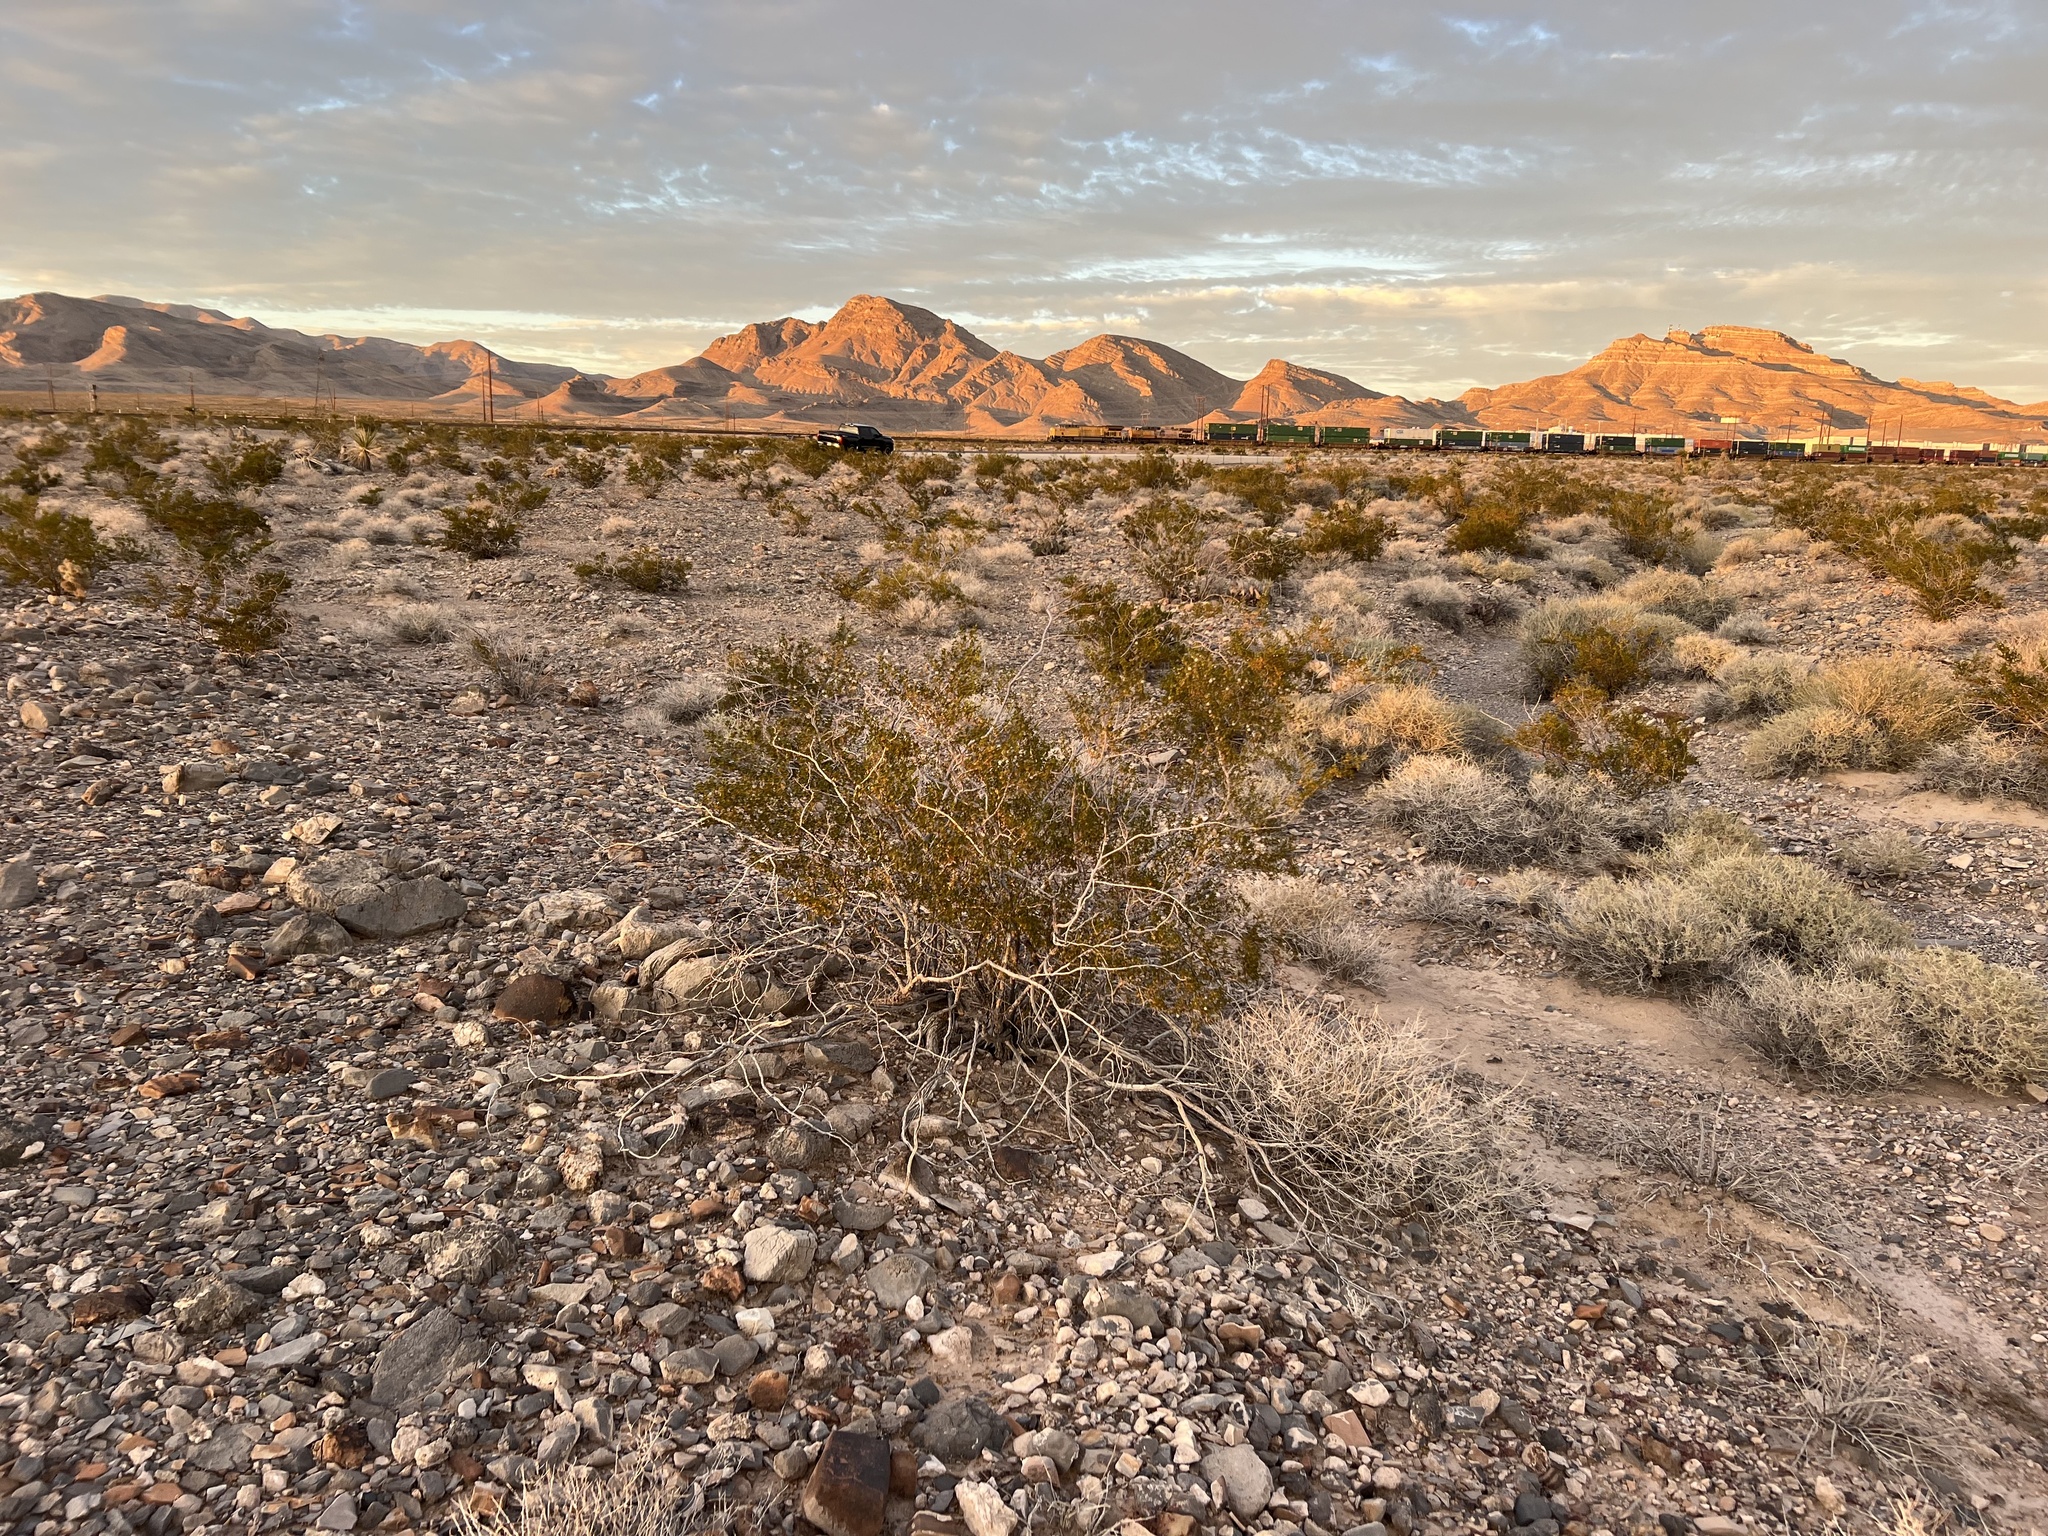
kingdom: Plantae
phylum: Tracheophyta
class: Magnoliopsida
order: Zygophyllales
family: Zygophyllaceae
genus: Larrea
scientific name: Larrea tridentata
